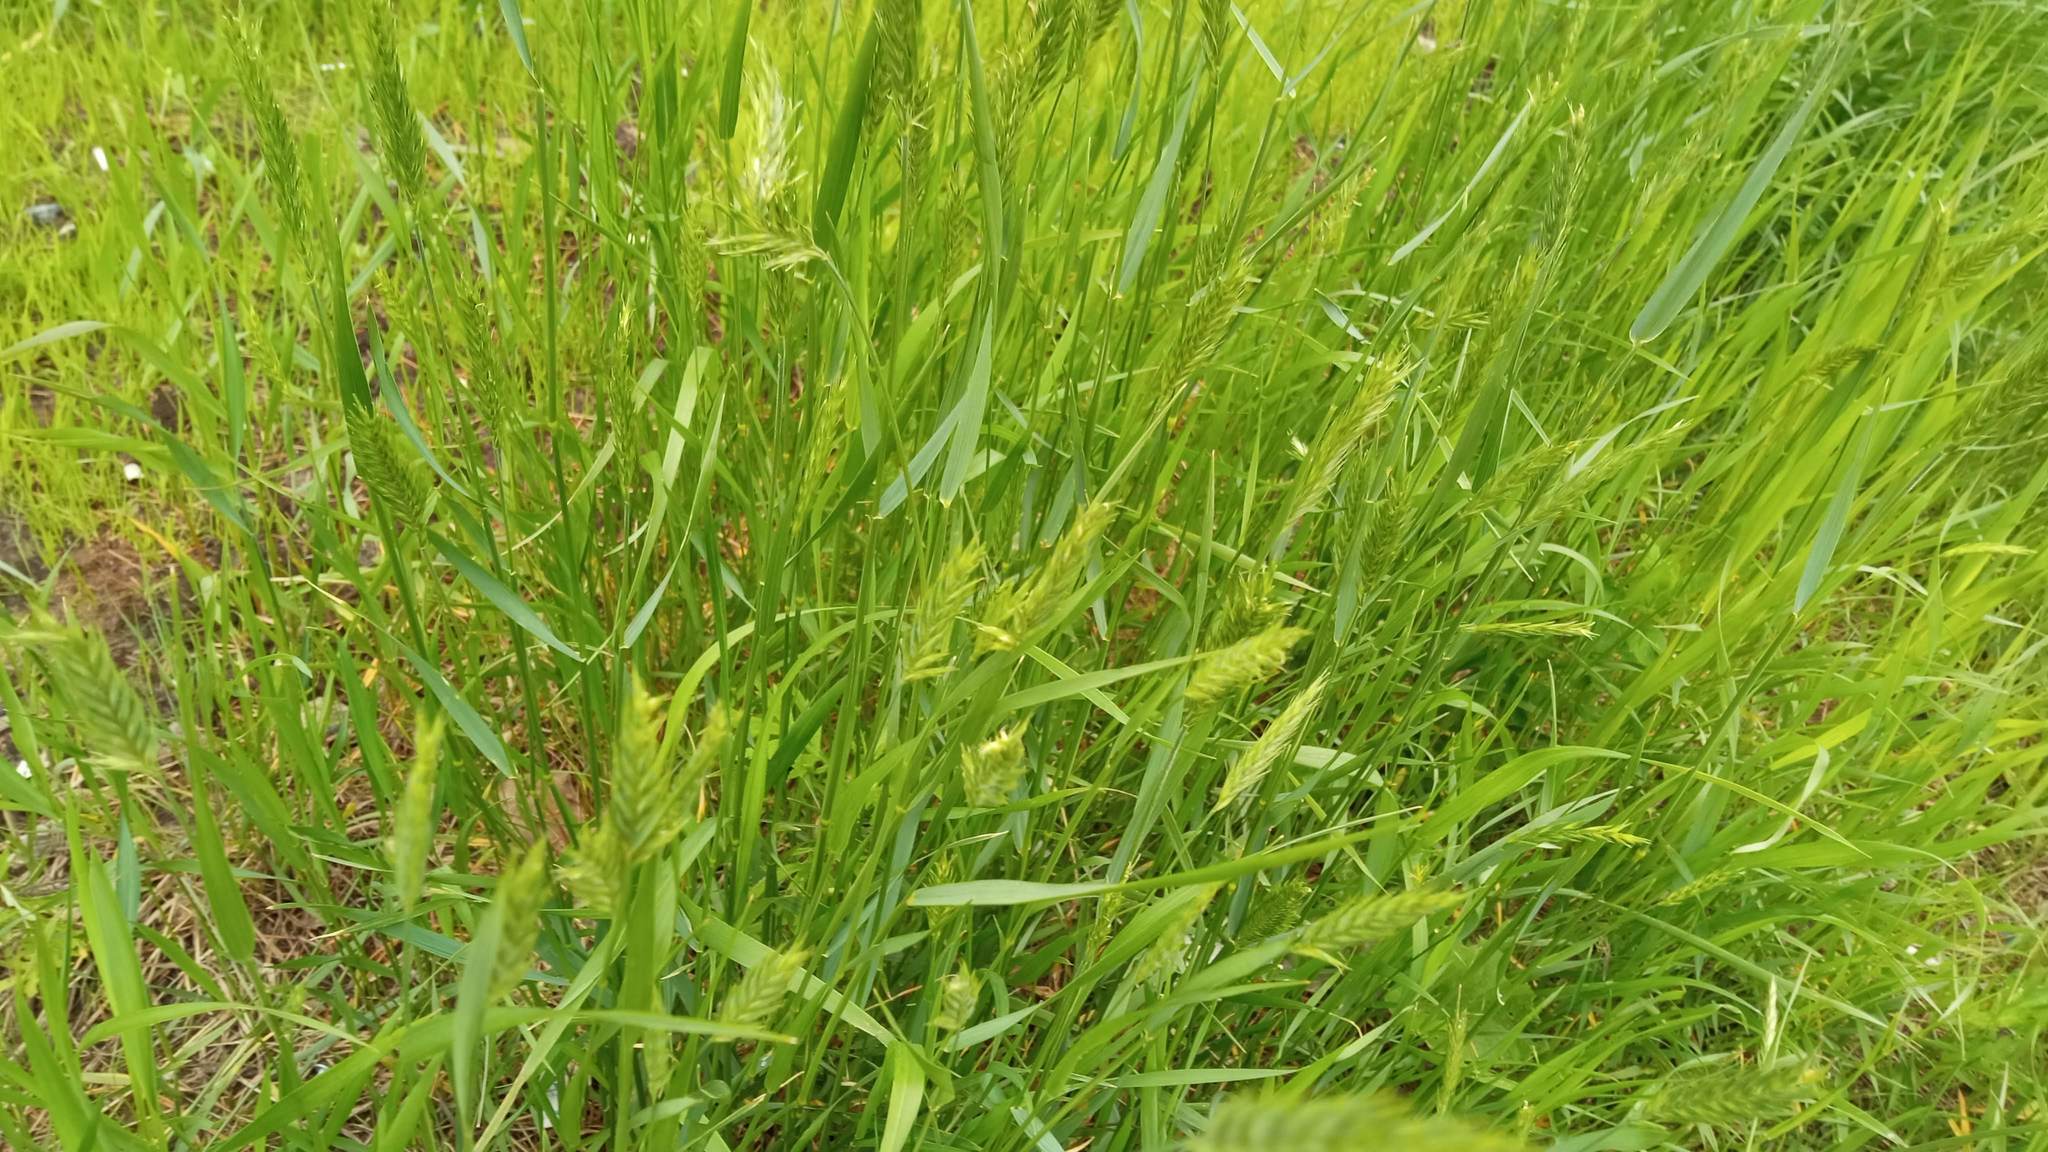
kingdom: Plantae
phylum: Tracheophyta
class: Liliopsida
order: Poales
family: Poaceae
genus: Anthoxanthum
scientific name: Anthoxanthum odoratum
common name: Sweet vernalgrass
